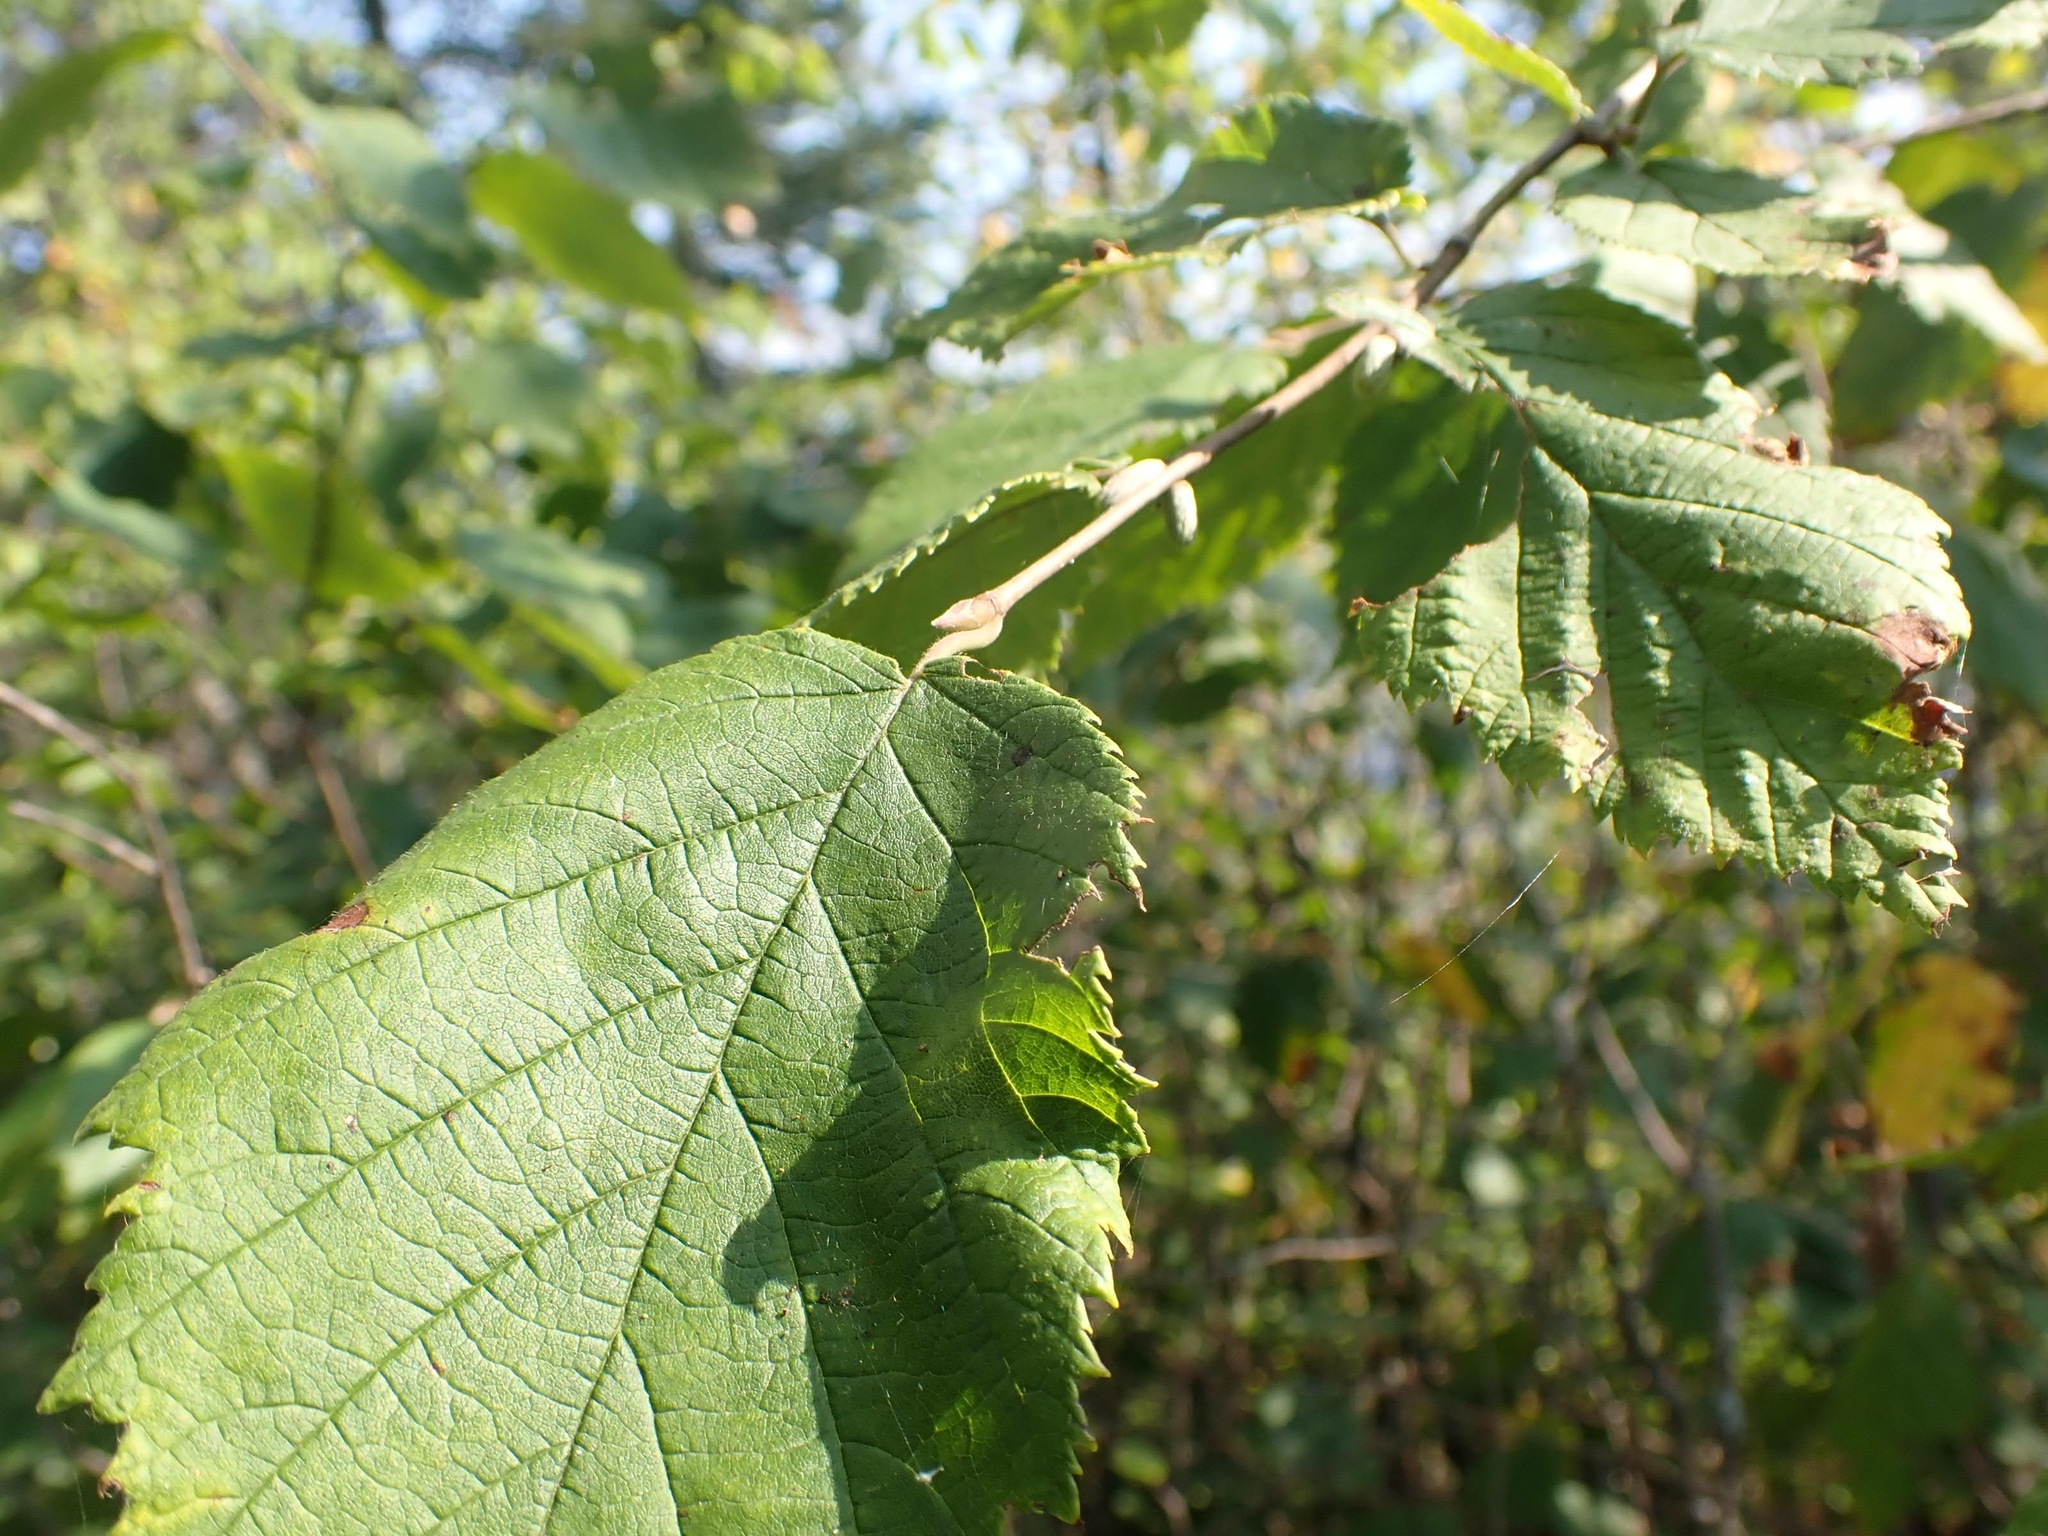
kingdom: Plantae
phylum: Tracheophyta
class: Magnoliopsida
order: Fagales
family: Betulaceae
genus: Corylus
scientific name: Corylus cornuta
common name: Beaked hazel
